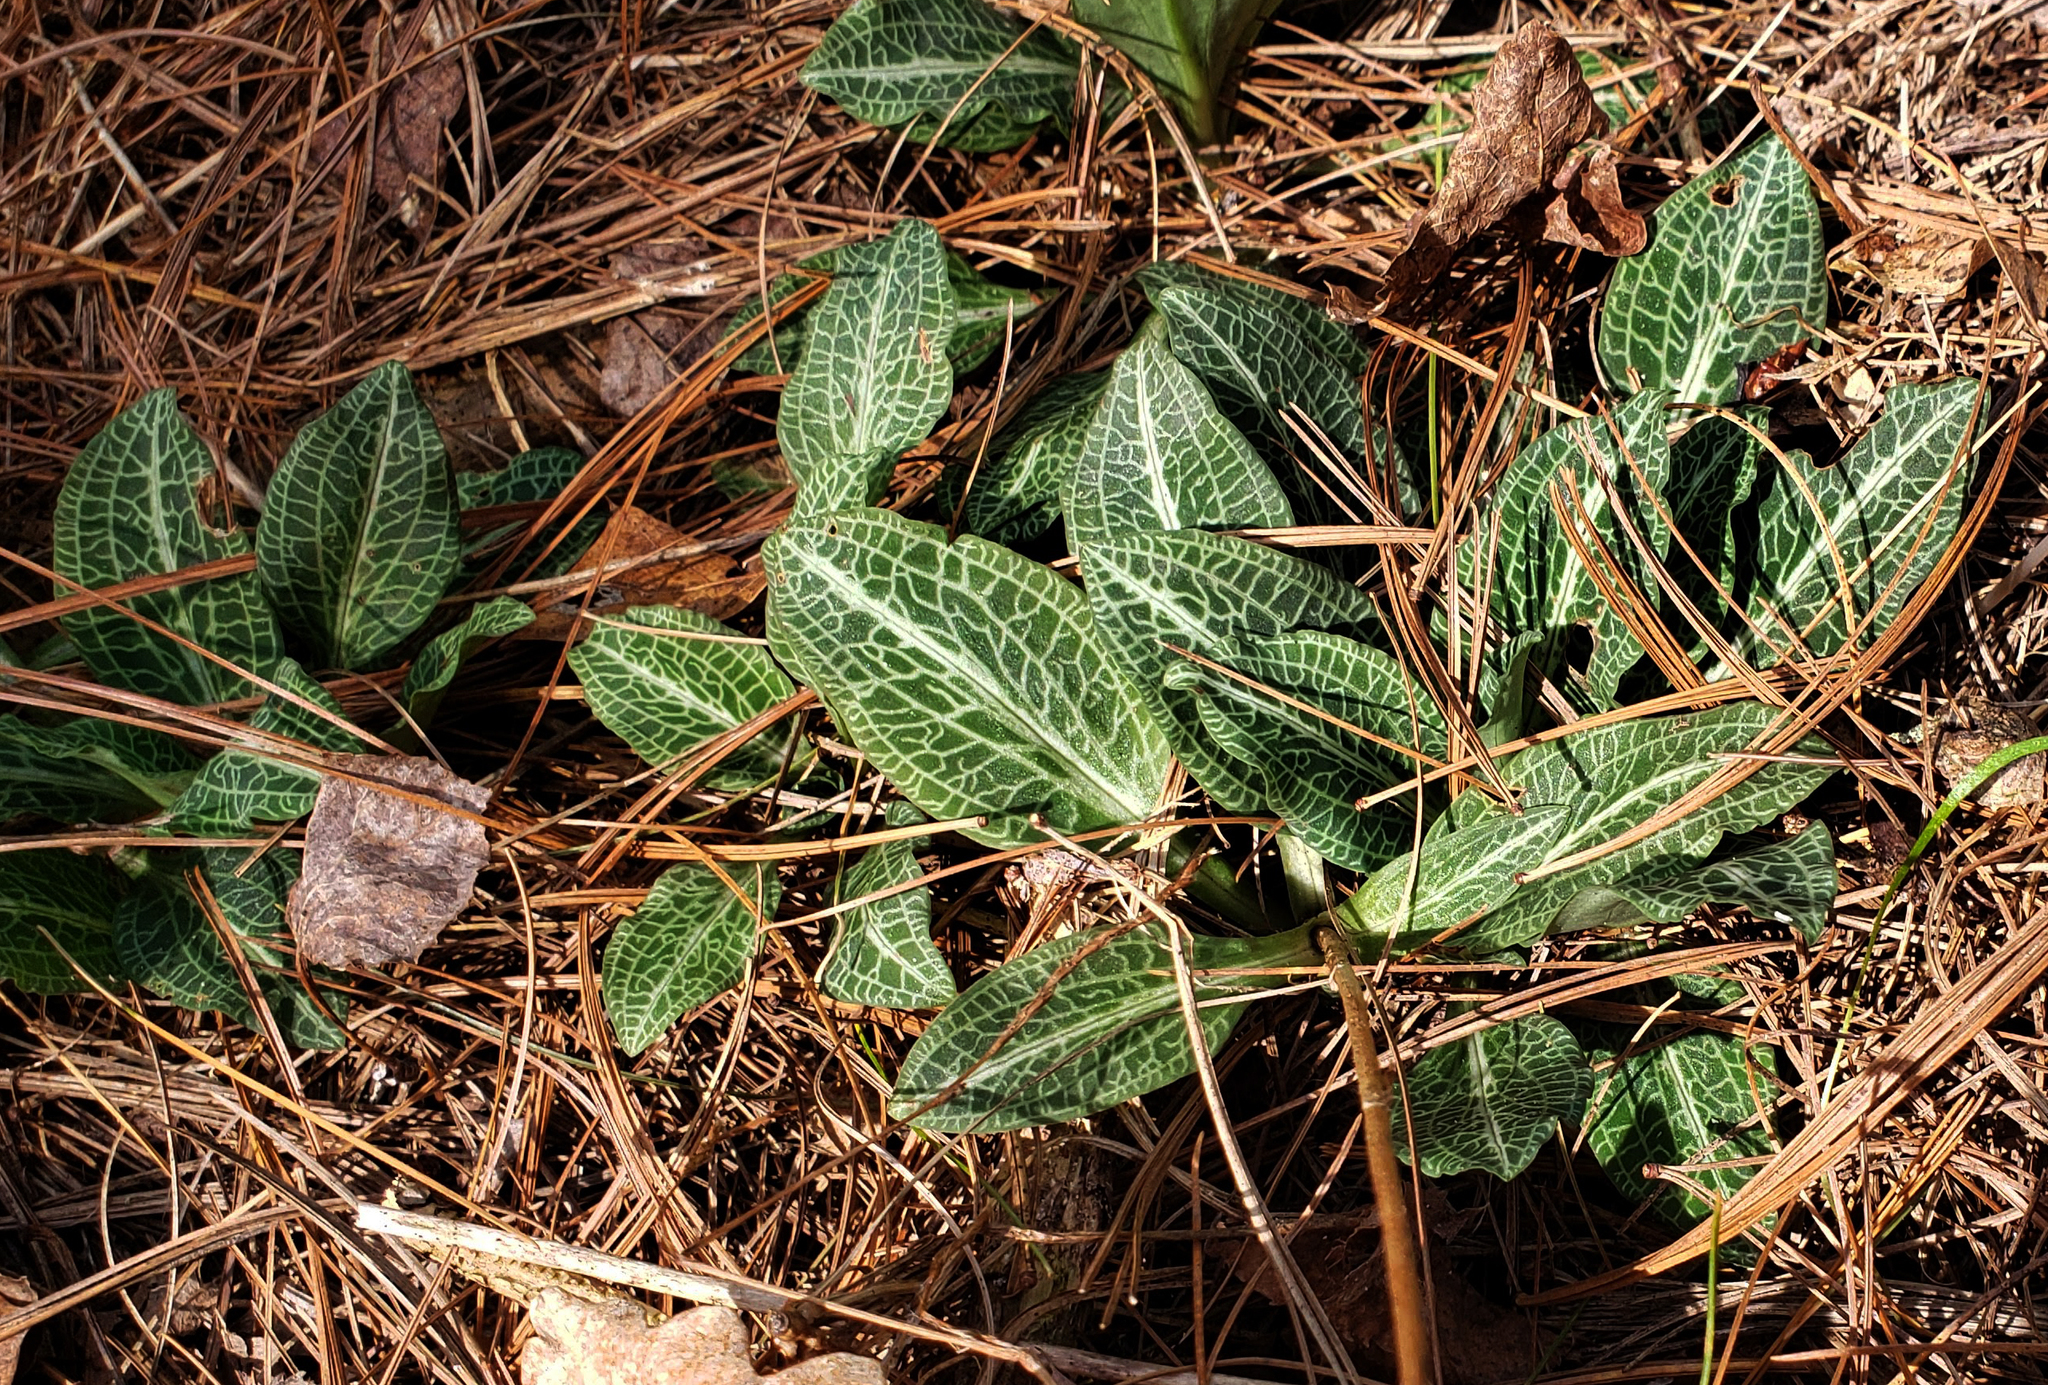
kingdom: Plantae
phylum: Tracheophyta
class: Liliopsida
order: Asparagales
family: Orchidaceae
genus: Goodyera
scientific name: Goodyera pubescens
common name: Downy rattlesnake-plantain
